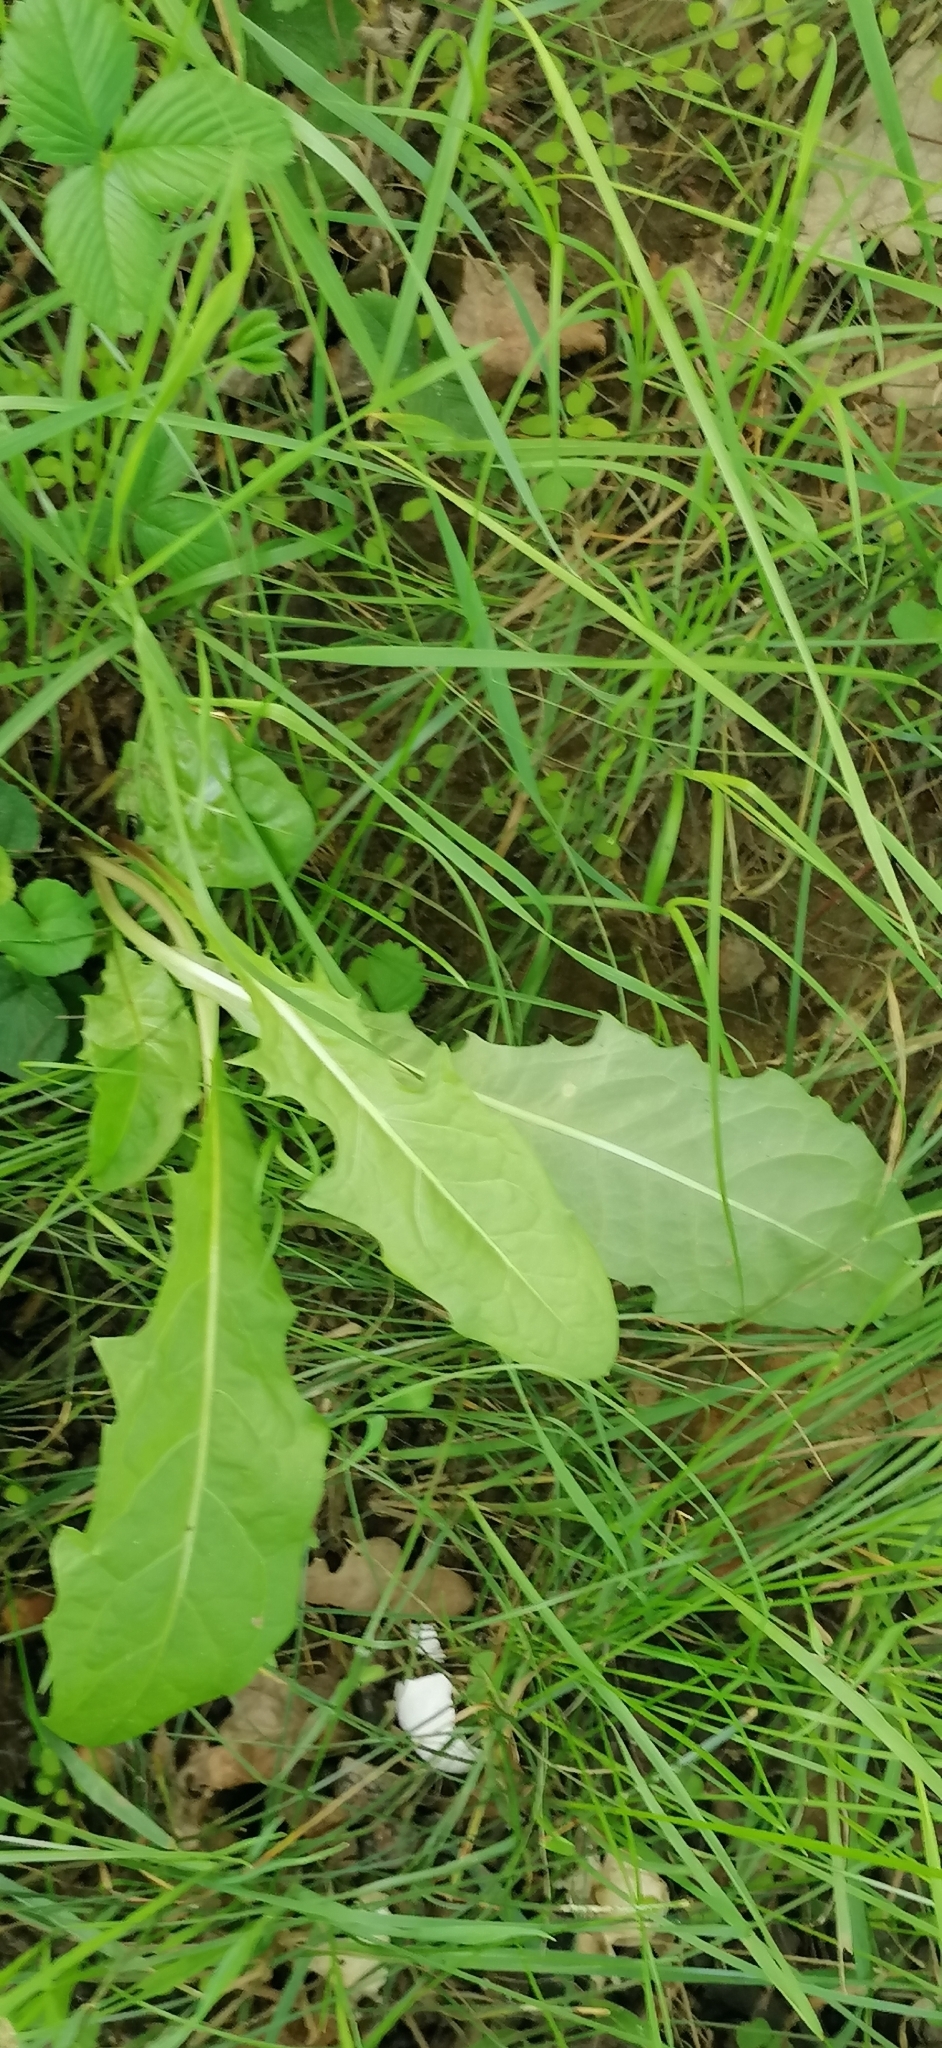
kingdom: Plantae
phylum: Tracheophyta
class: Magnoliopsida
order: Asterales
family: Asteraceae
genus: Taraxacum
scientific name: Taraxacum officinale
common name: Common dandelion
